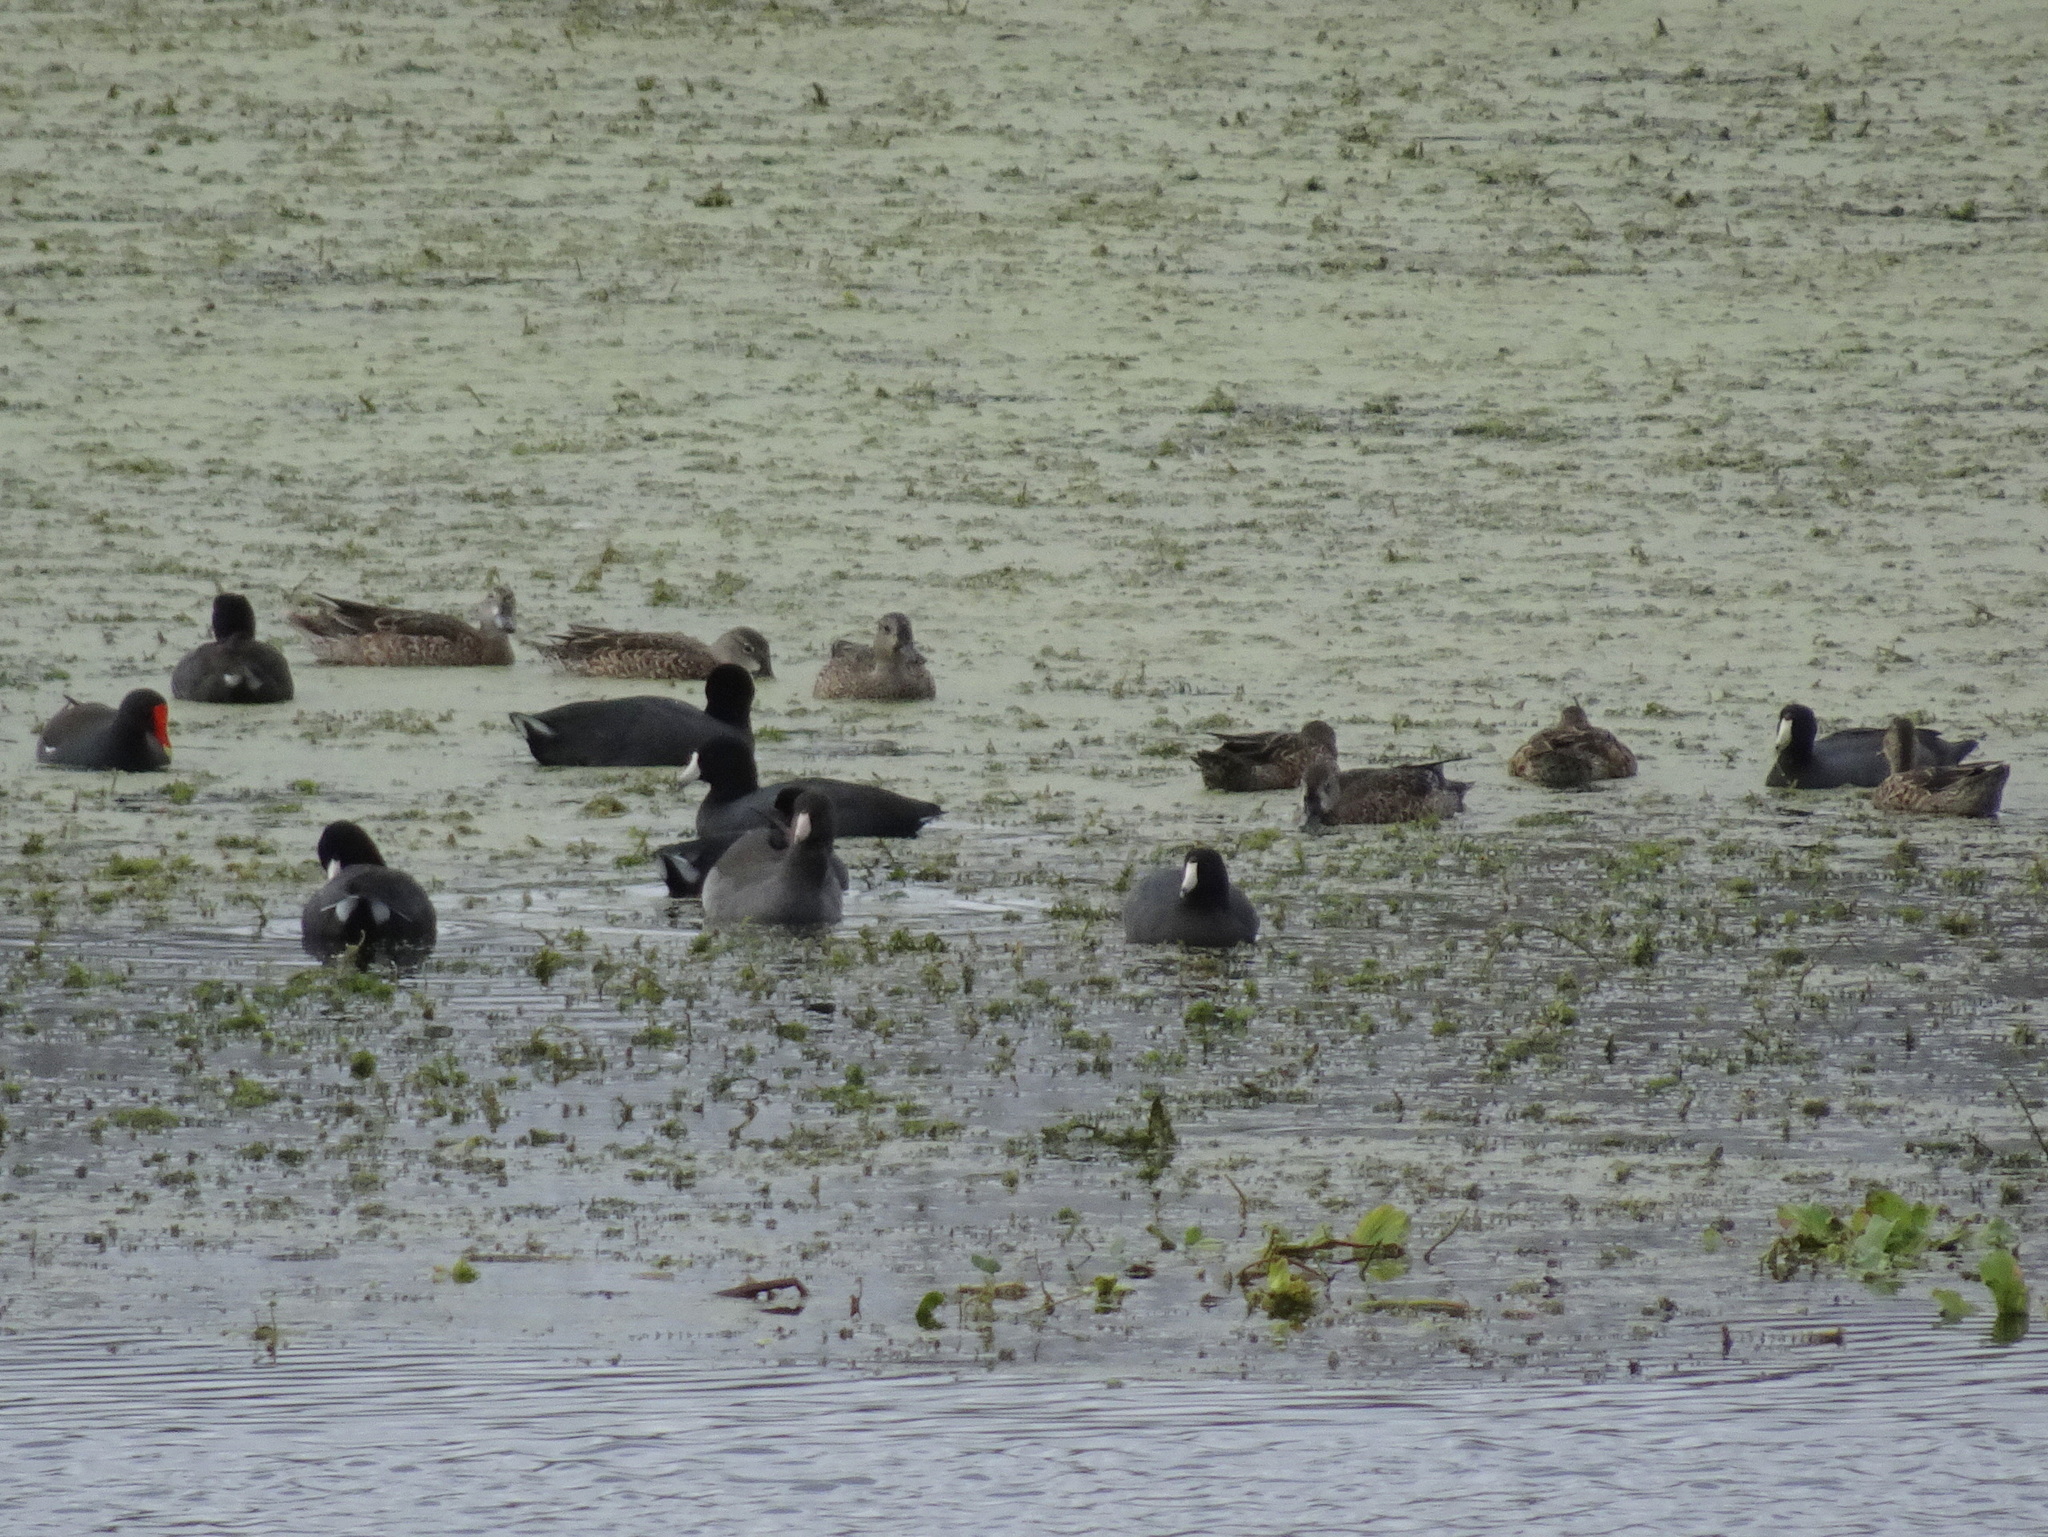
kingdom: Animalia
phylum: Chordata
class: Aves
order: Gruiformes
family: Rallidae
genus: Fulica
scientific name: Fulica americana
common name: American coot
